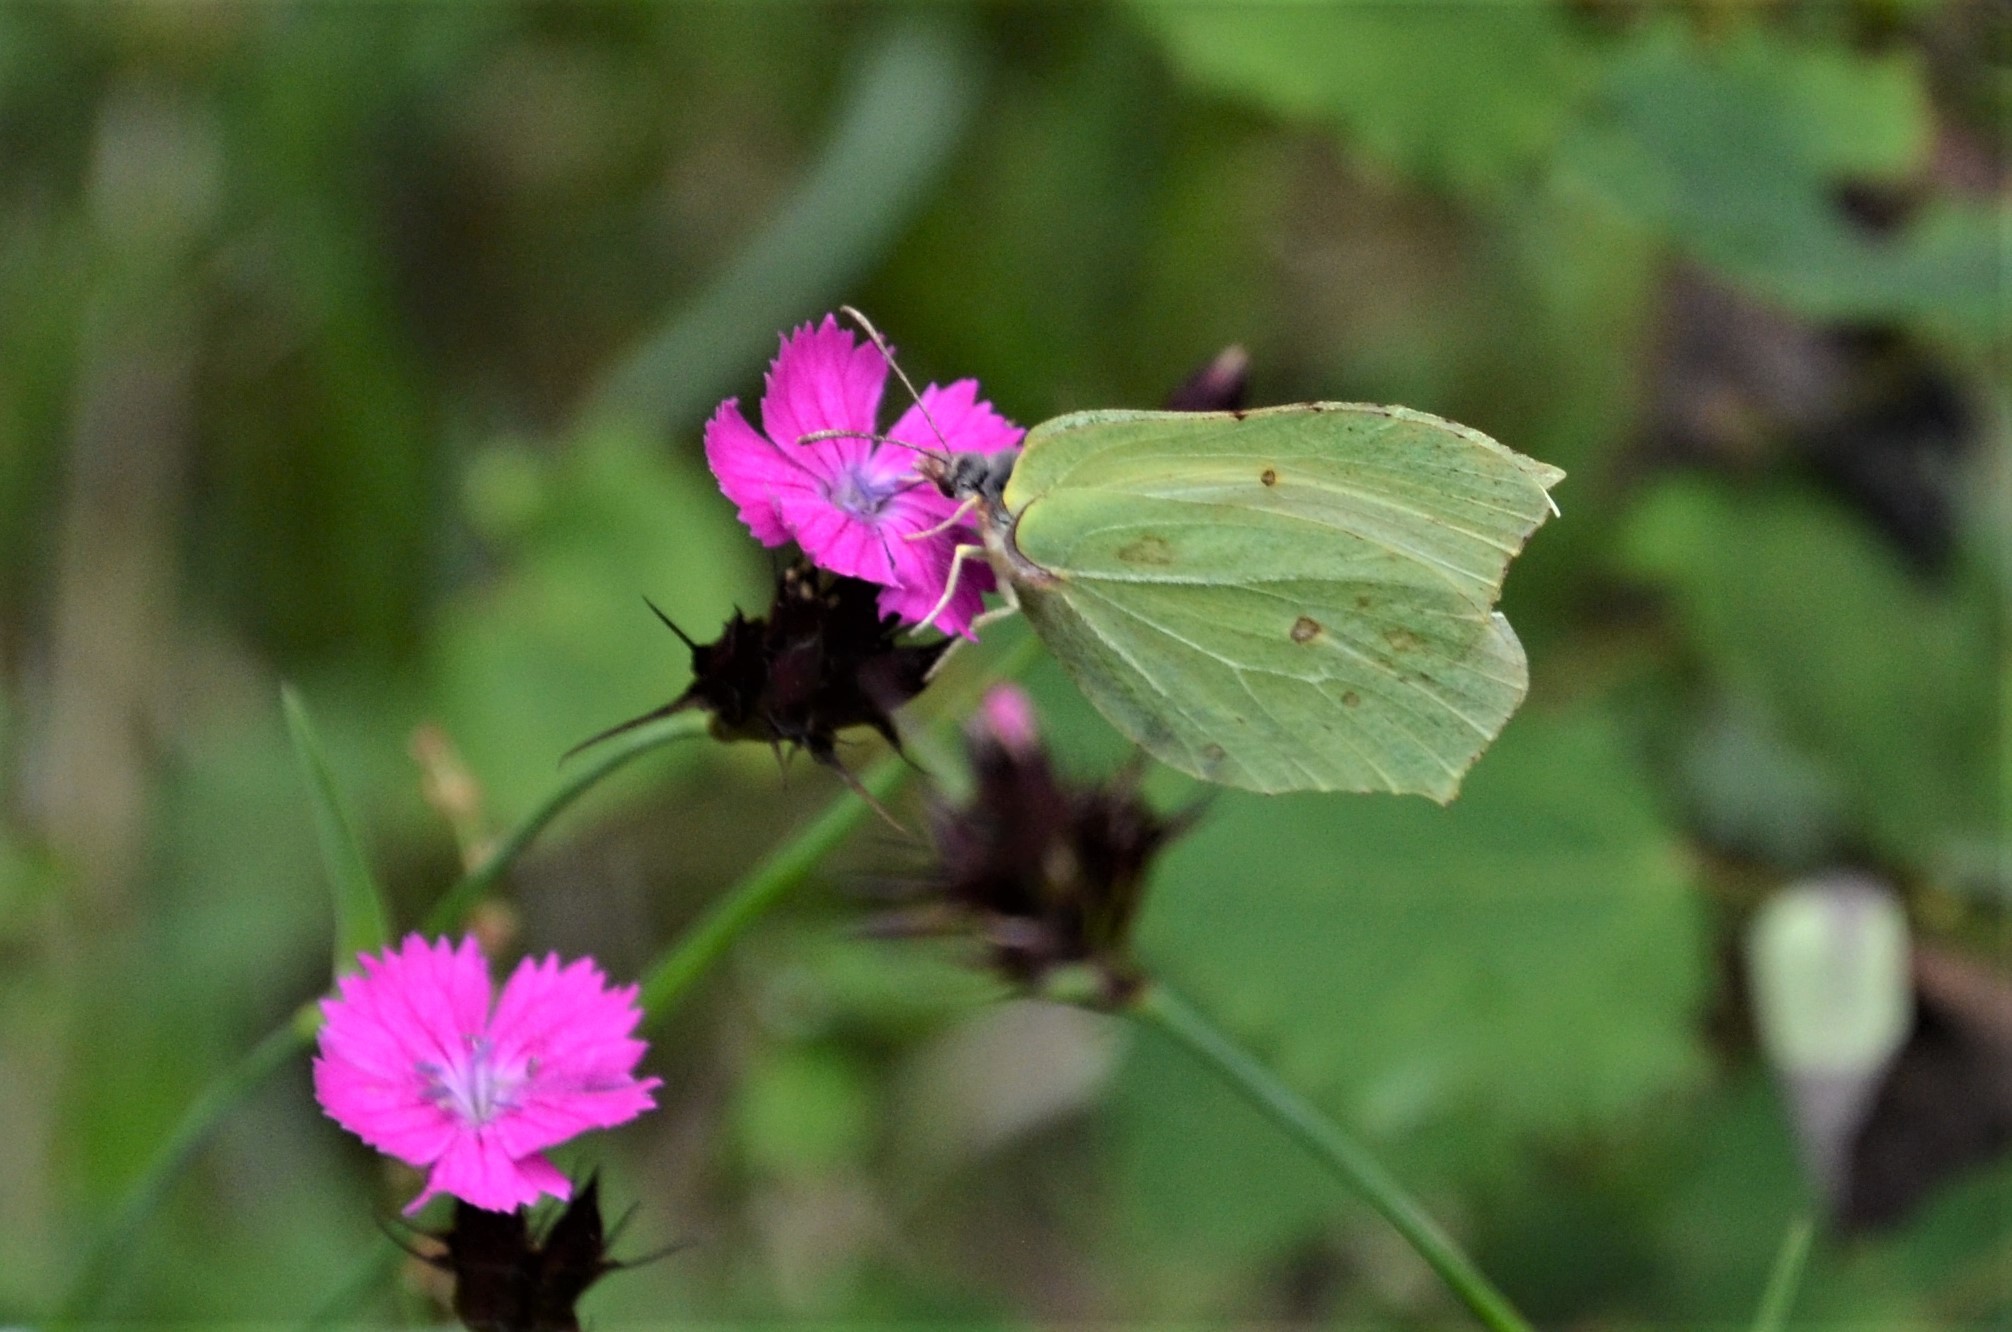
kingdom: Animalia
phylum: Arthropoda
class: Insecta
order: Lepidoptera
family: Pieridae
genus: Gonepteryx
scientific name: Gonepteryx rhamni
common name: Brimstone
